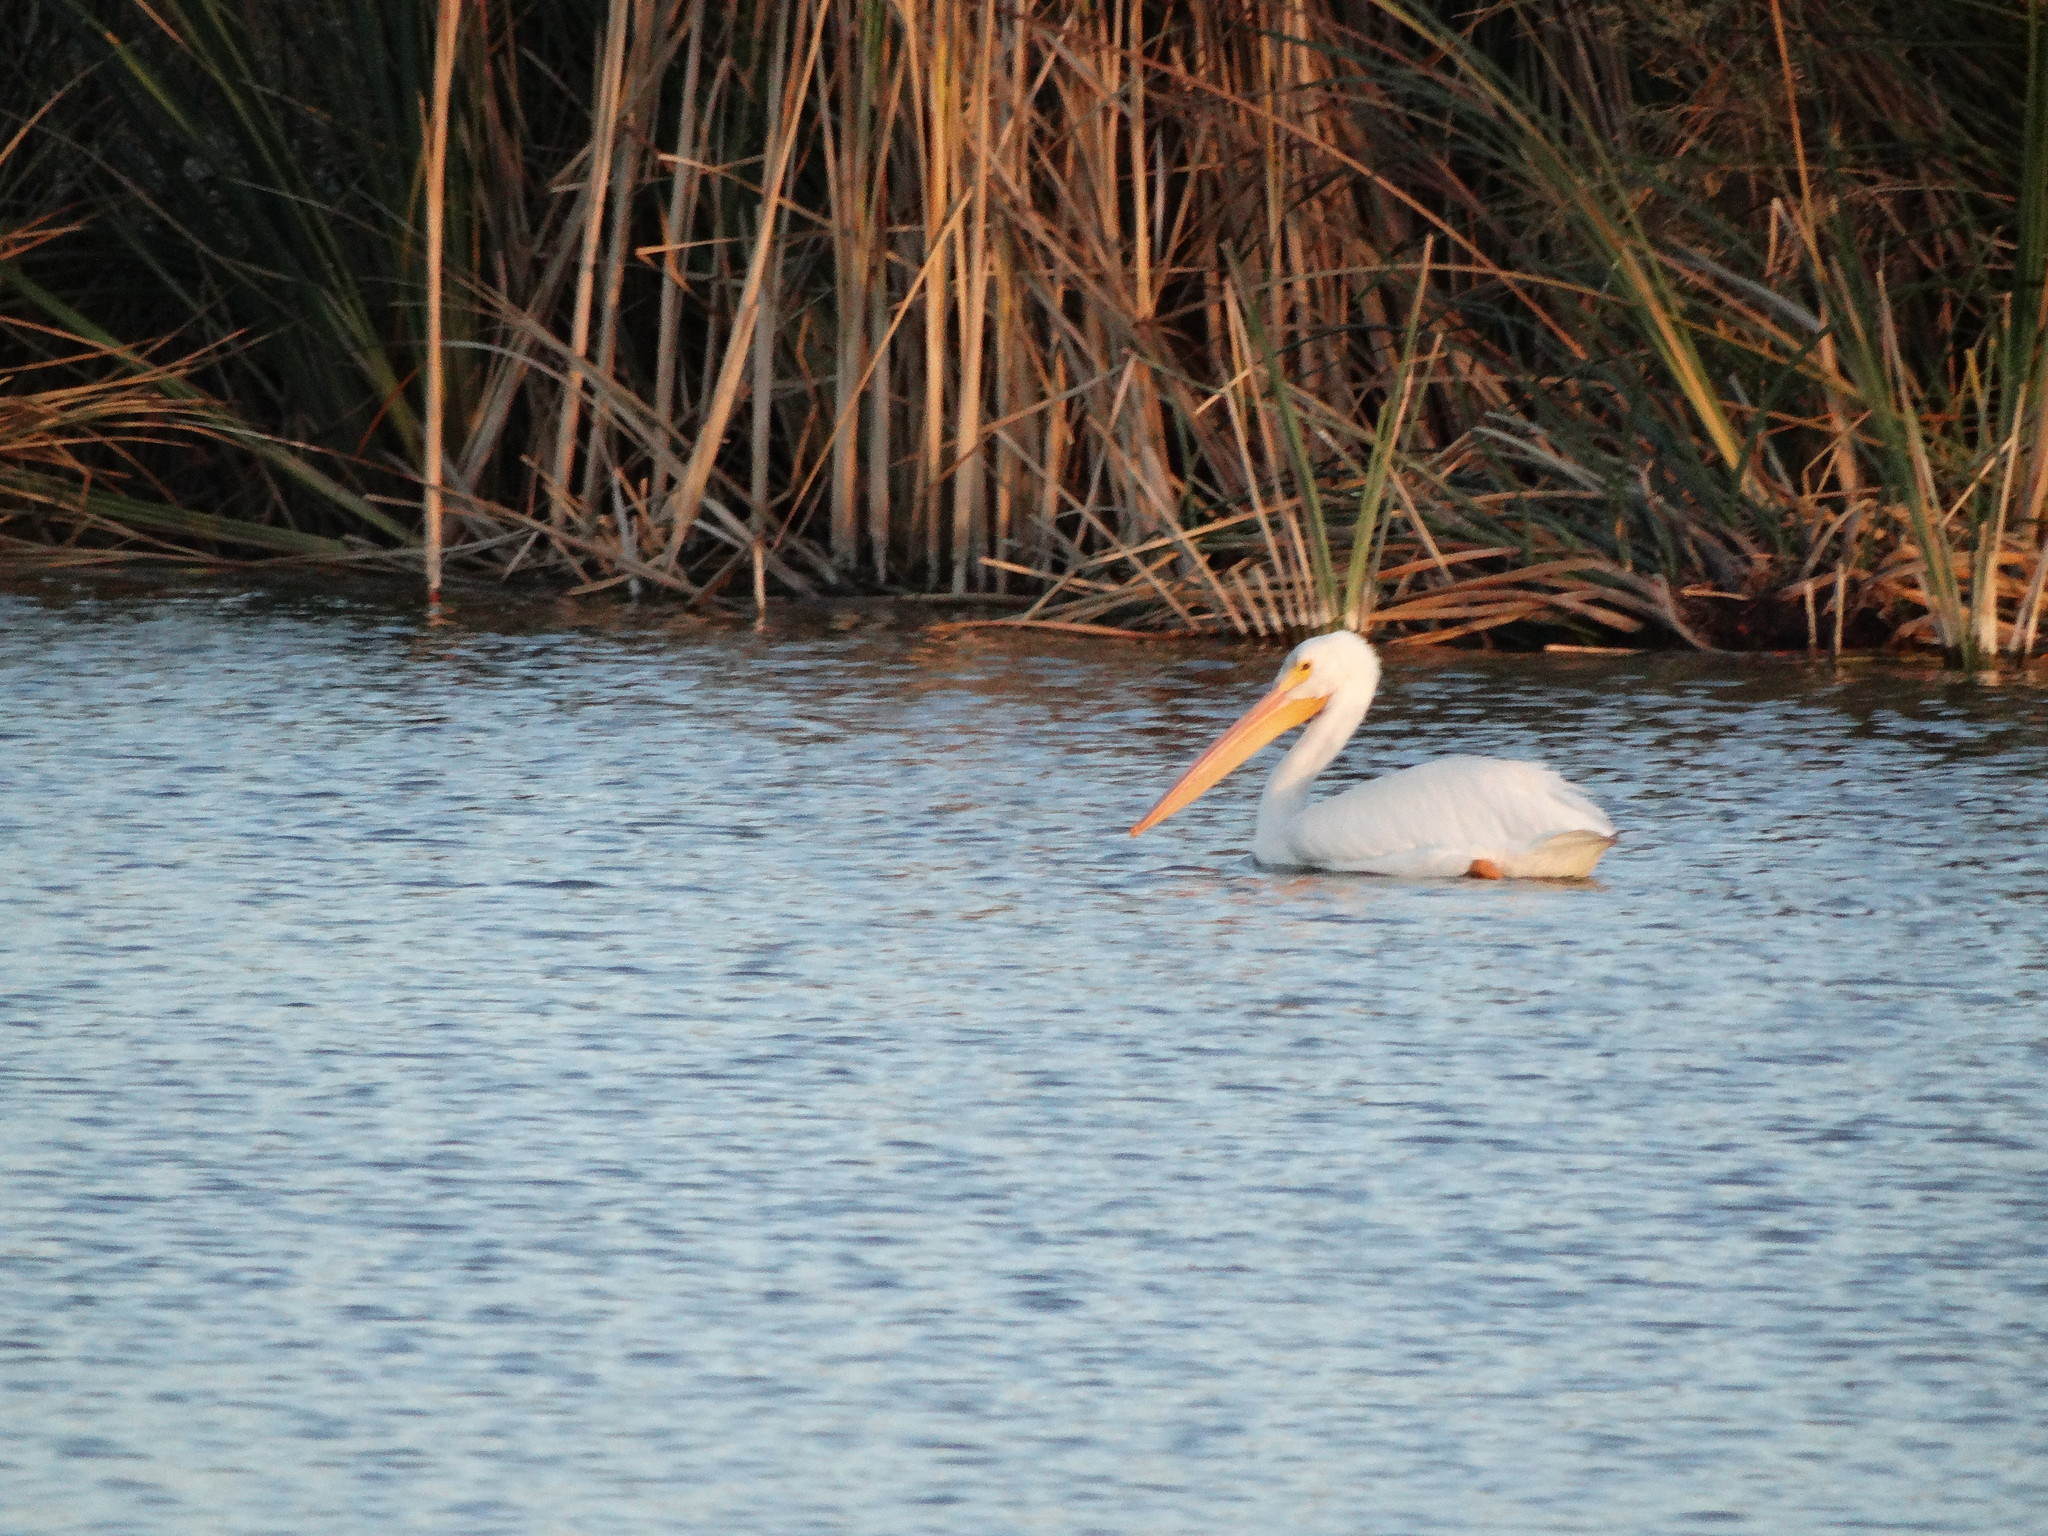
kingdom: Animalia
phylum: Chordata
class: Aves
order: Pelecaniformes
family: Pelecanidae
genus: Pelecanus
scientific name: Pelecanus erythrorhynchos
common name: American white pelican
